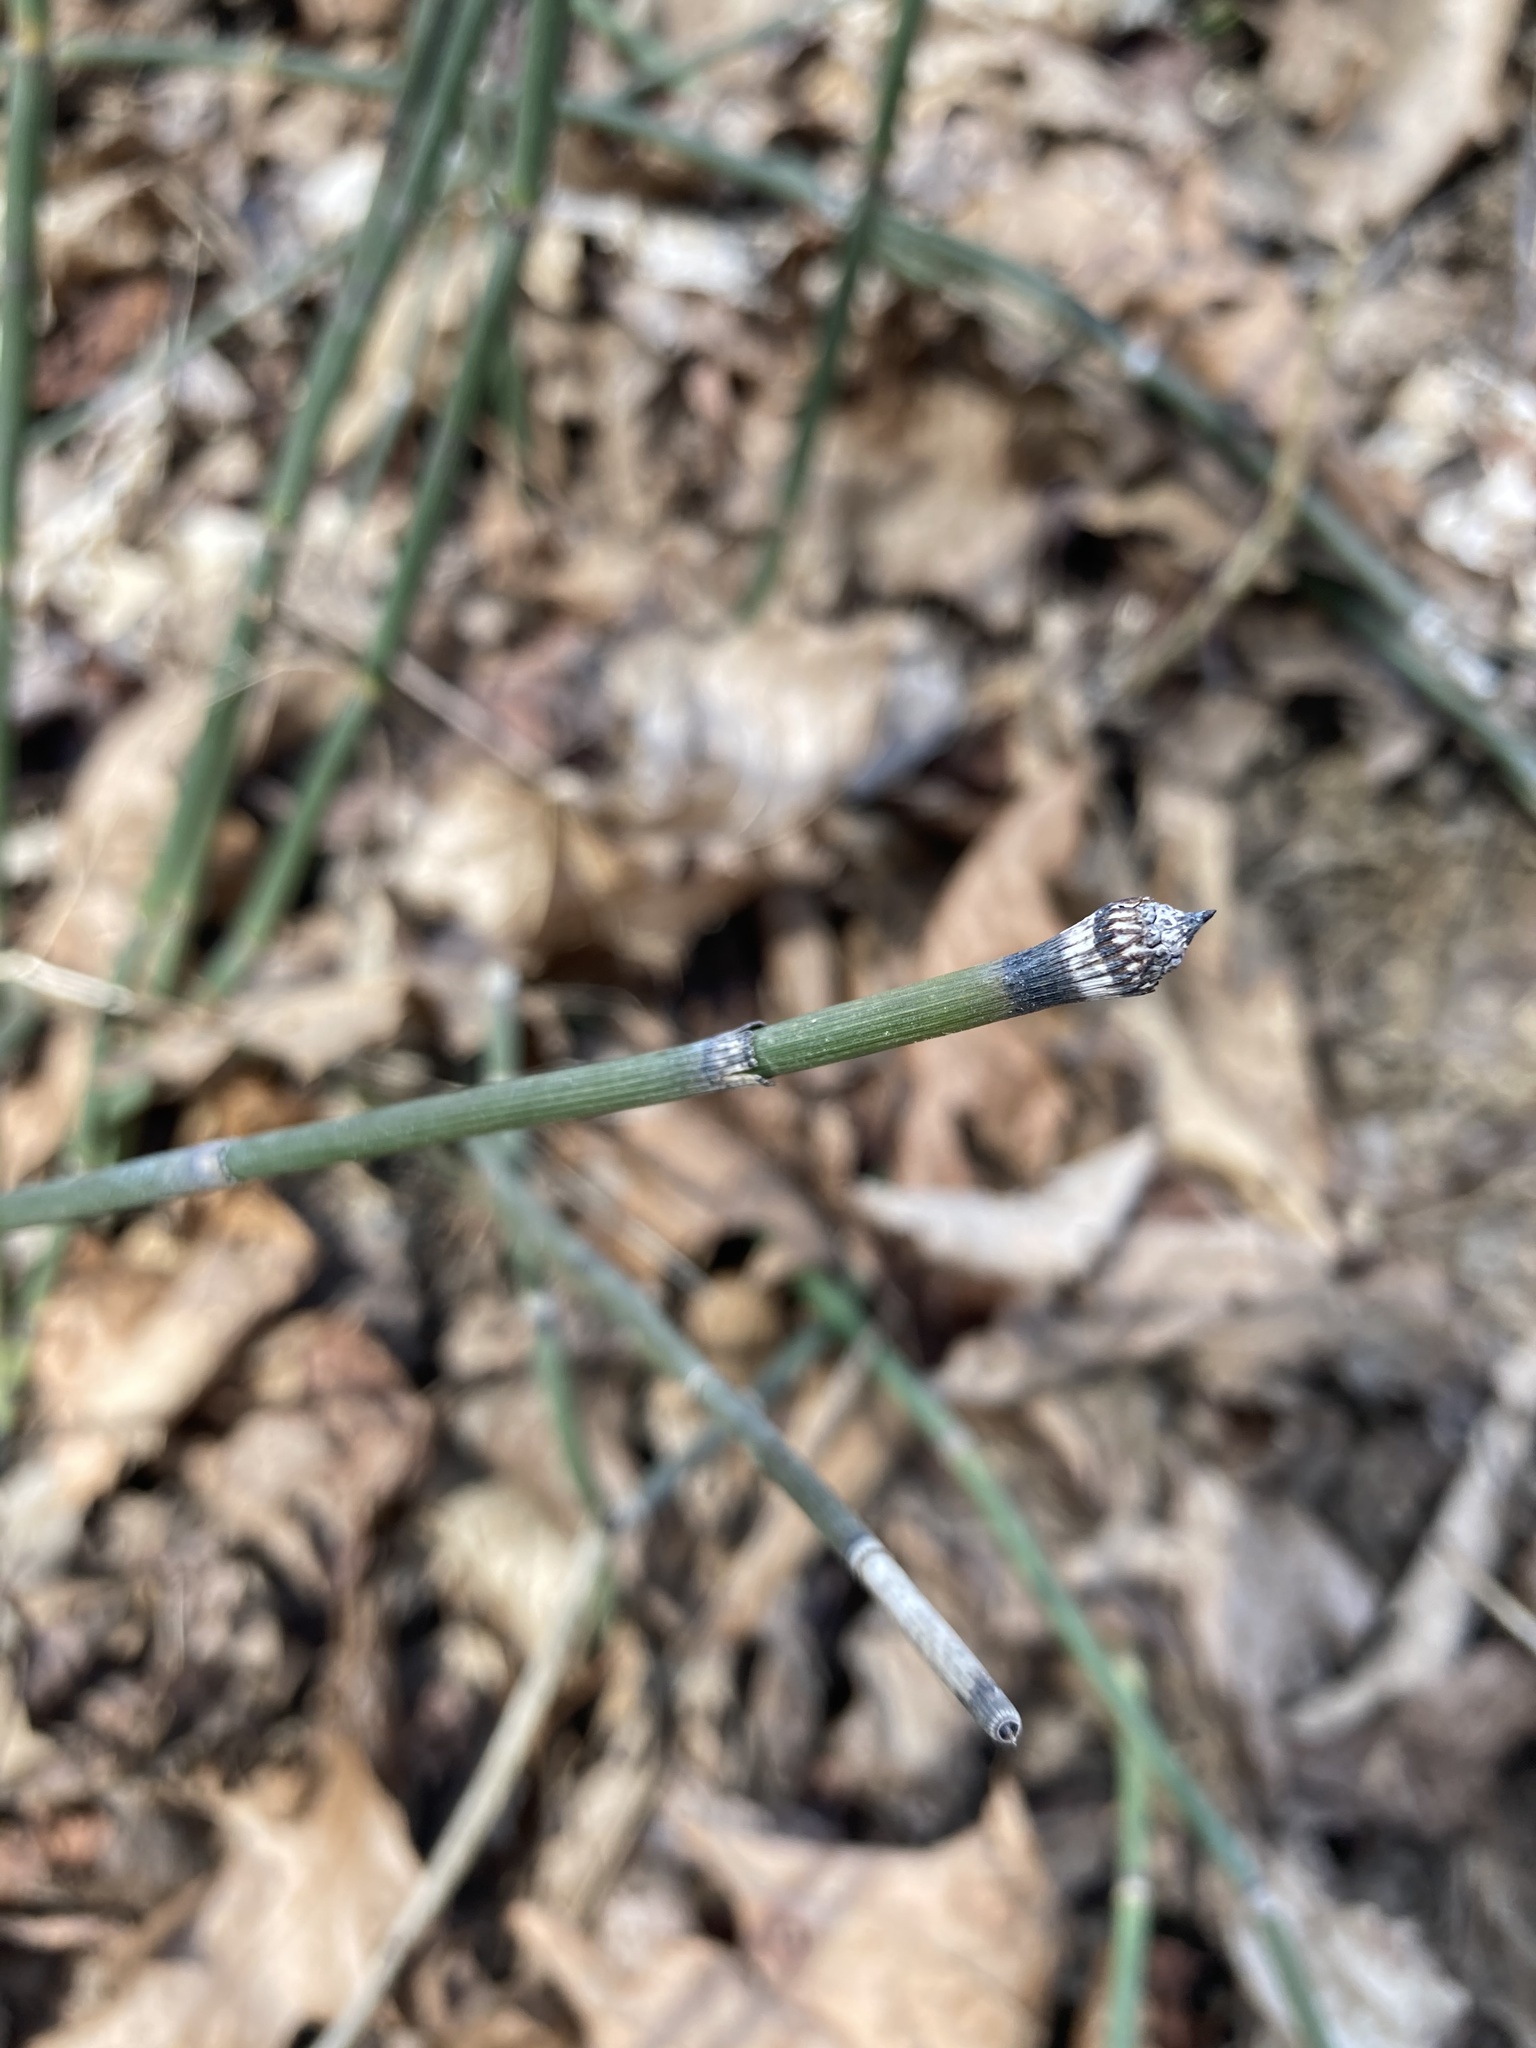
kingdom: Plantae
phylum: Tracheophyta
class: Polypodiopsida
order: Equisetales
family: Equisetaceae
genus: Equisetum
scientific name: Equisetum hyemale
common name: Rough horsetail
